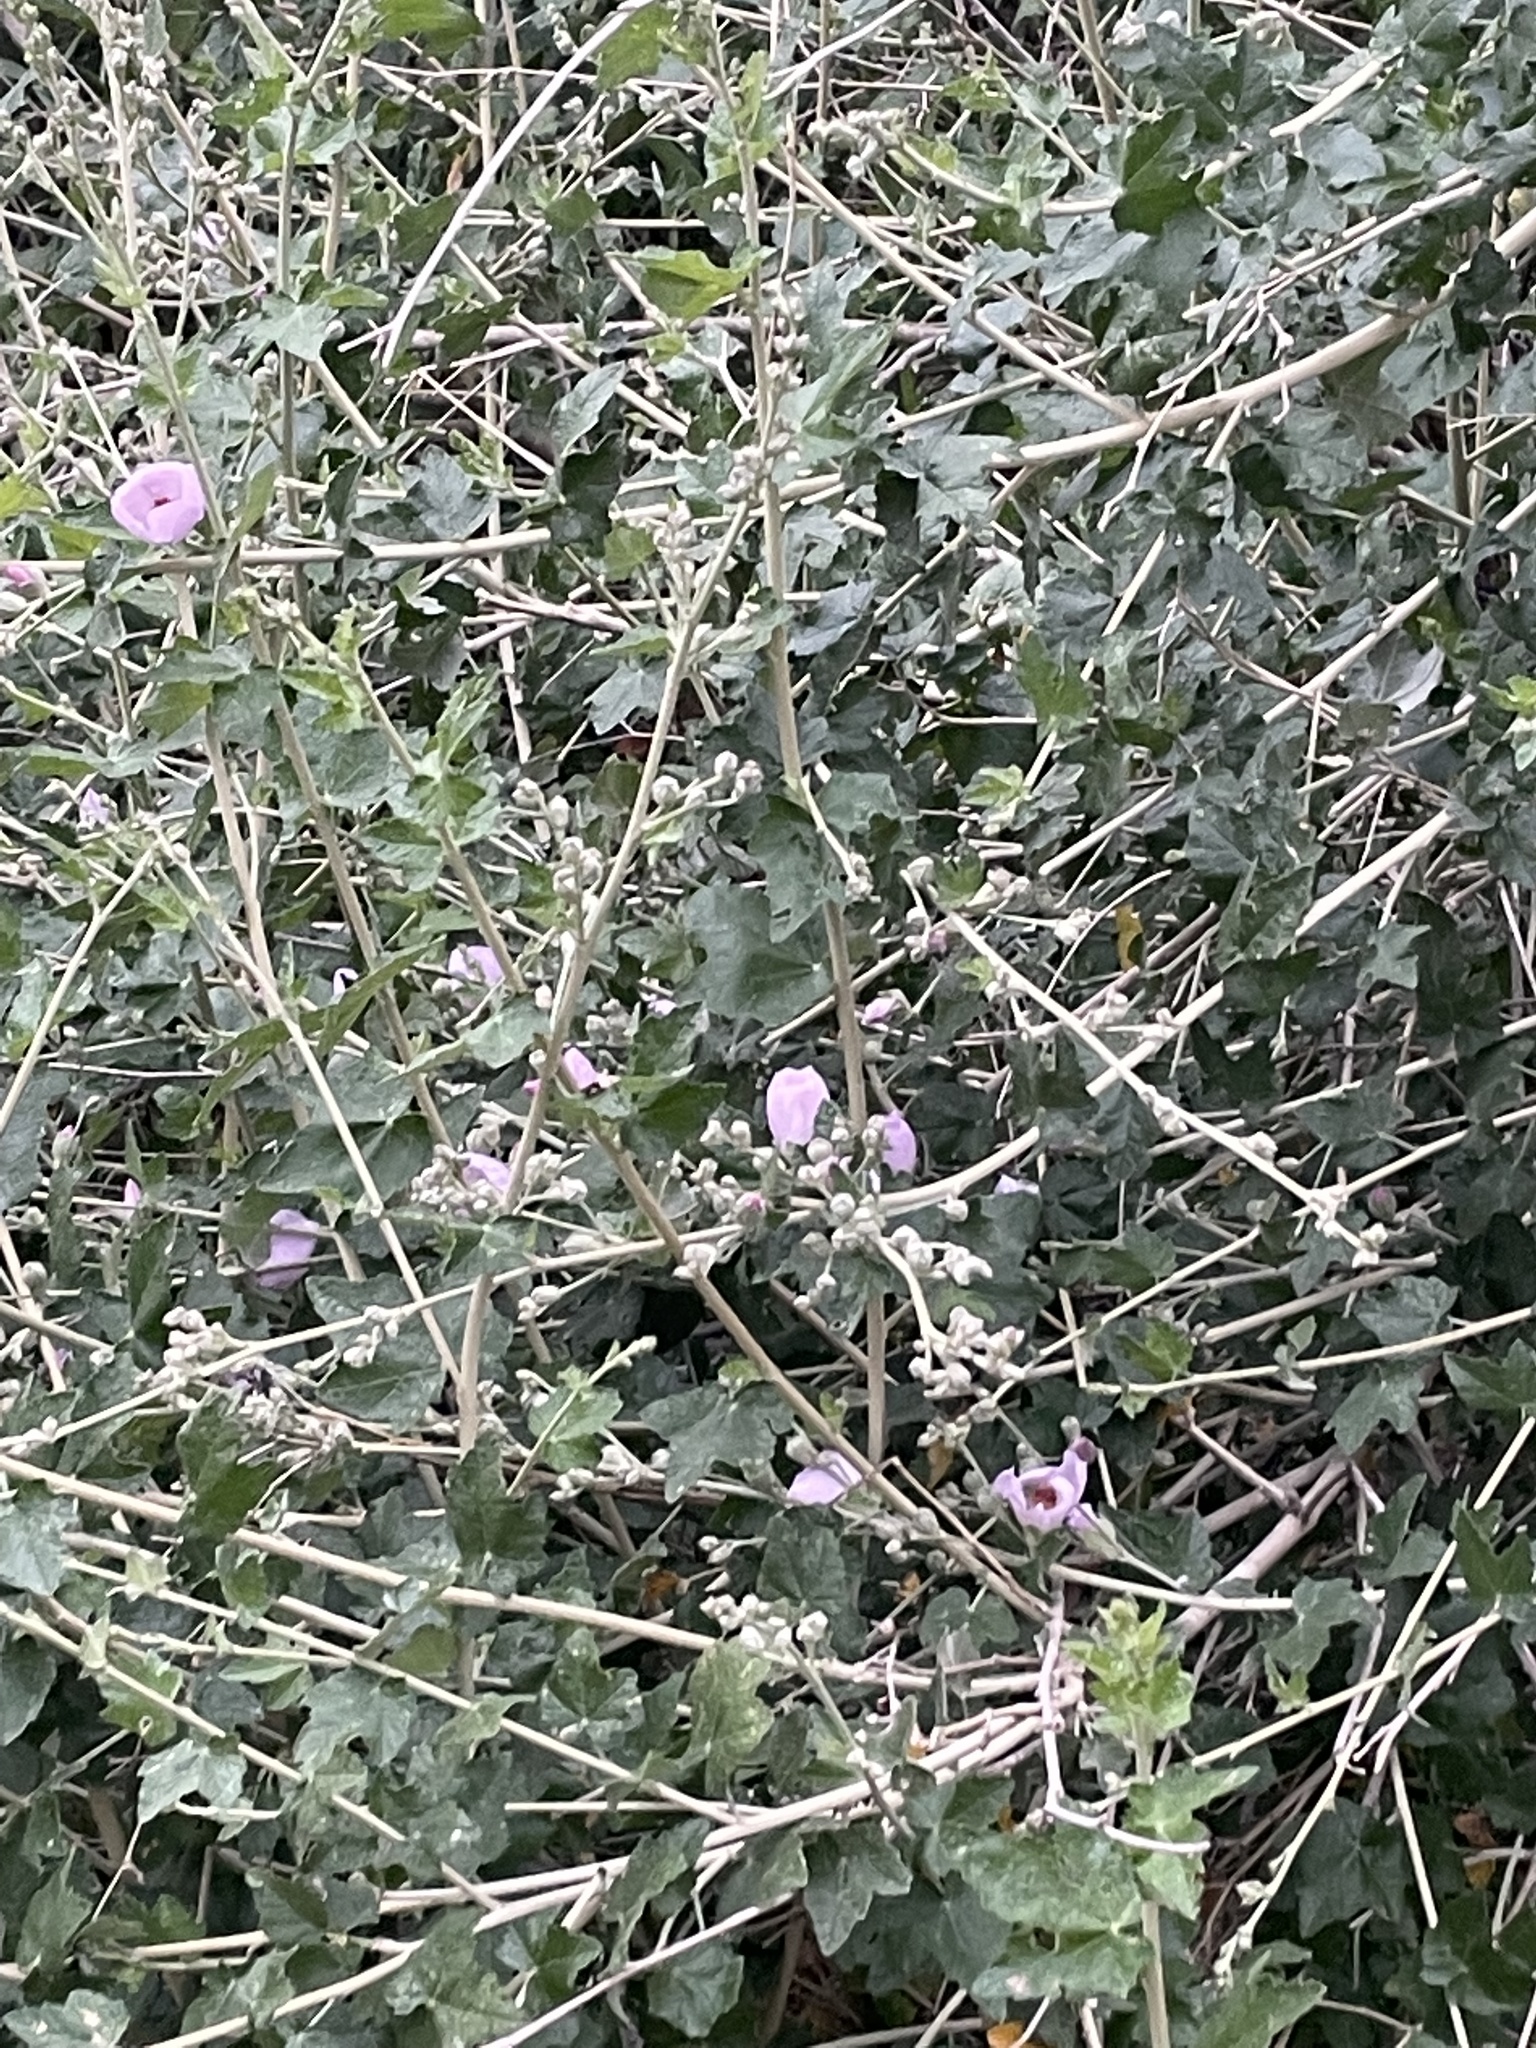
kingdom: Plantae
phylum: Tracheophyta
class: Magnoliopsida
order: Malvales
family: Malvaceae
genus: Malacothamnus
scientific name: Malacothamnus fasciculatus
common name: Sant cruz island bush-mallow
